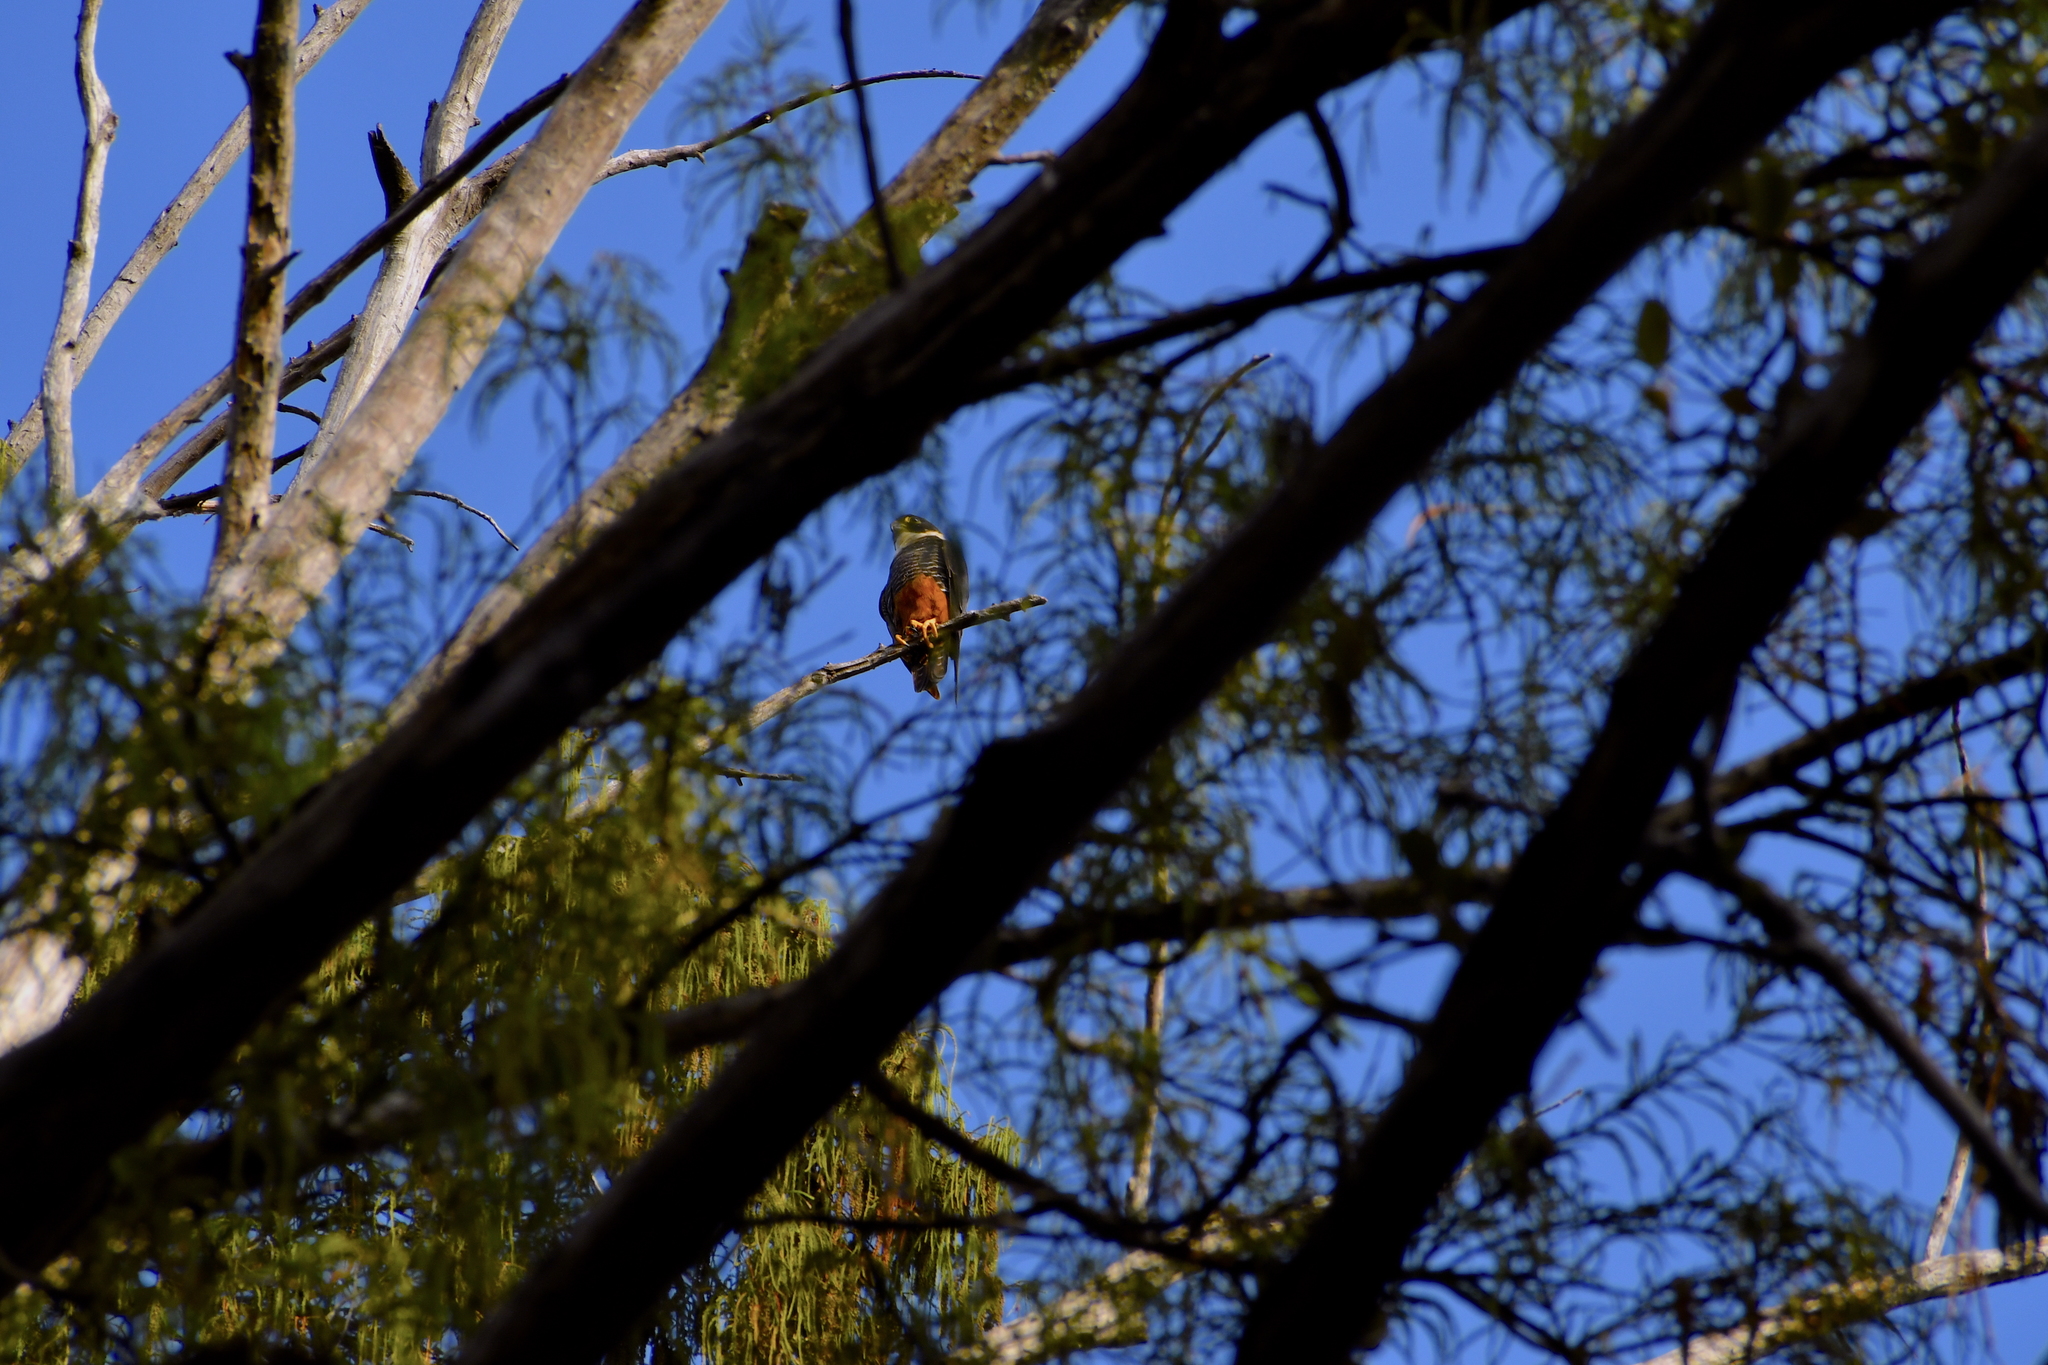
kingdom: Animalia
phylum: Chordata
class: Aves
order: Falconiformes
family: Falconidae
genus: Falco
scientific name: Falco rufigularis
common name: Bat falcon
